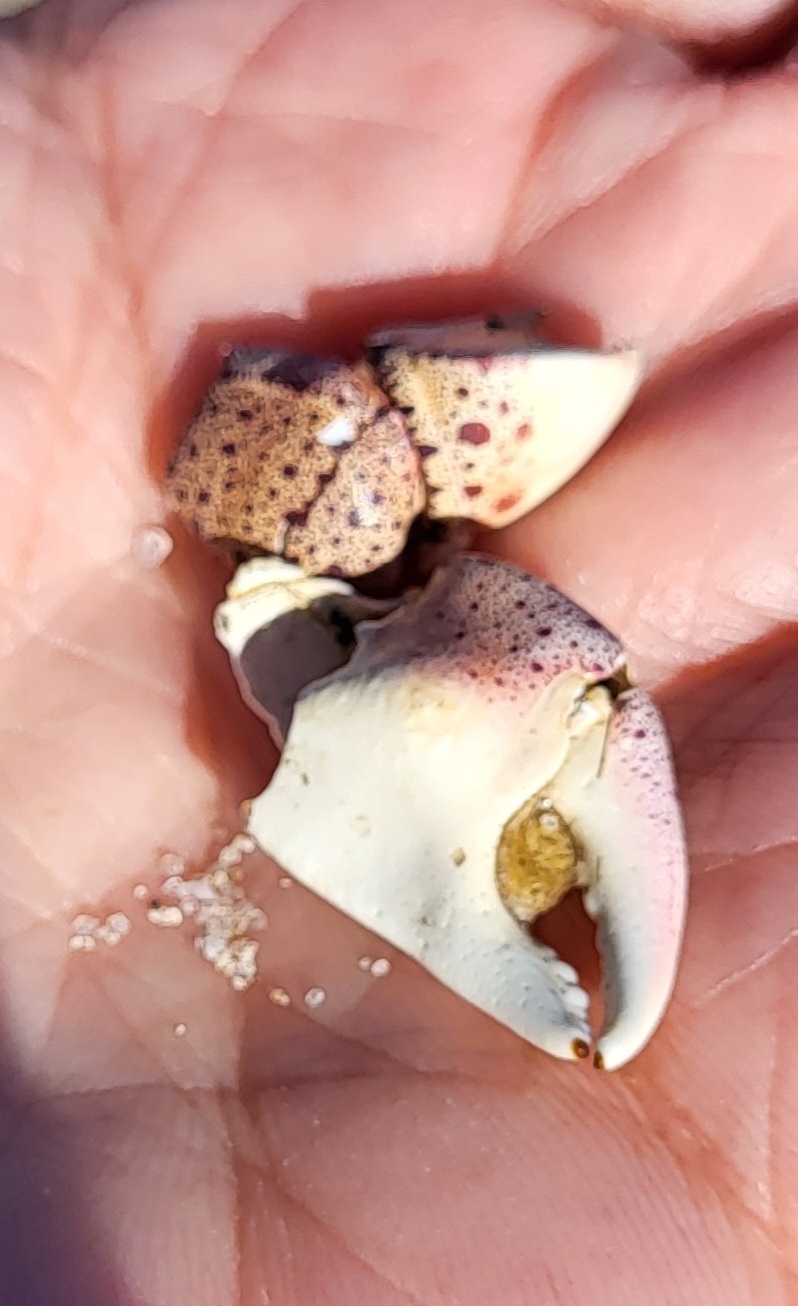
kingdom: Animalia
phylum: Arthropoda
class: Malacostraca
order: Decapoda
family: Varunidae
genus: Hemigrapsus
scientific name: Hemigrapsus sanguineus
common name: Asian shore crab
